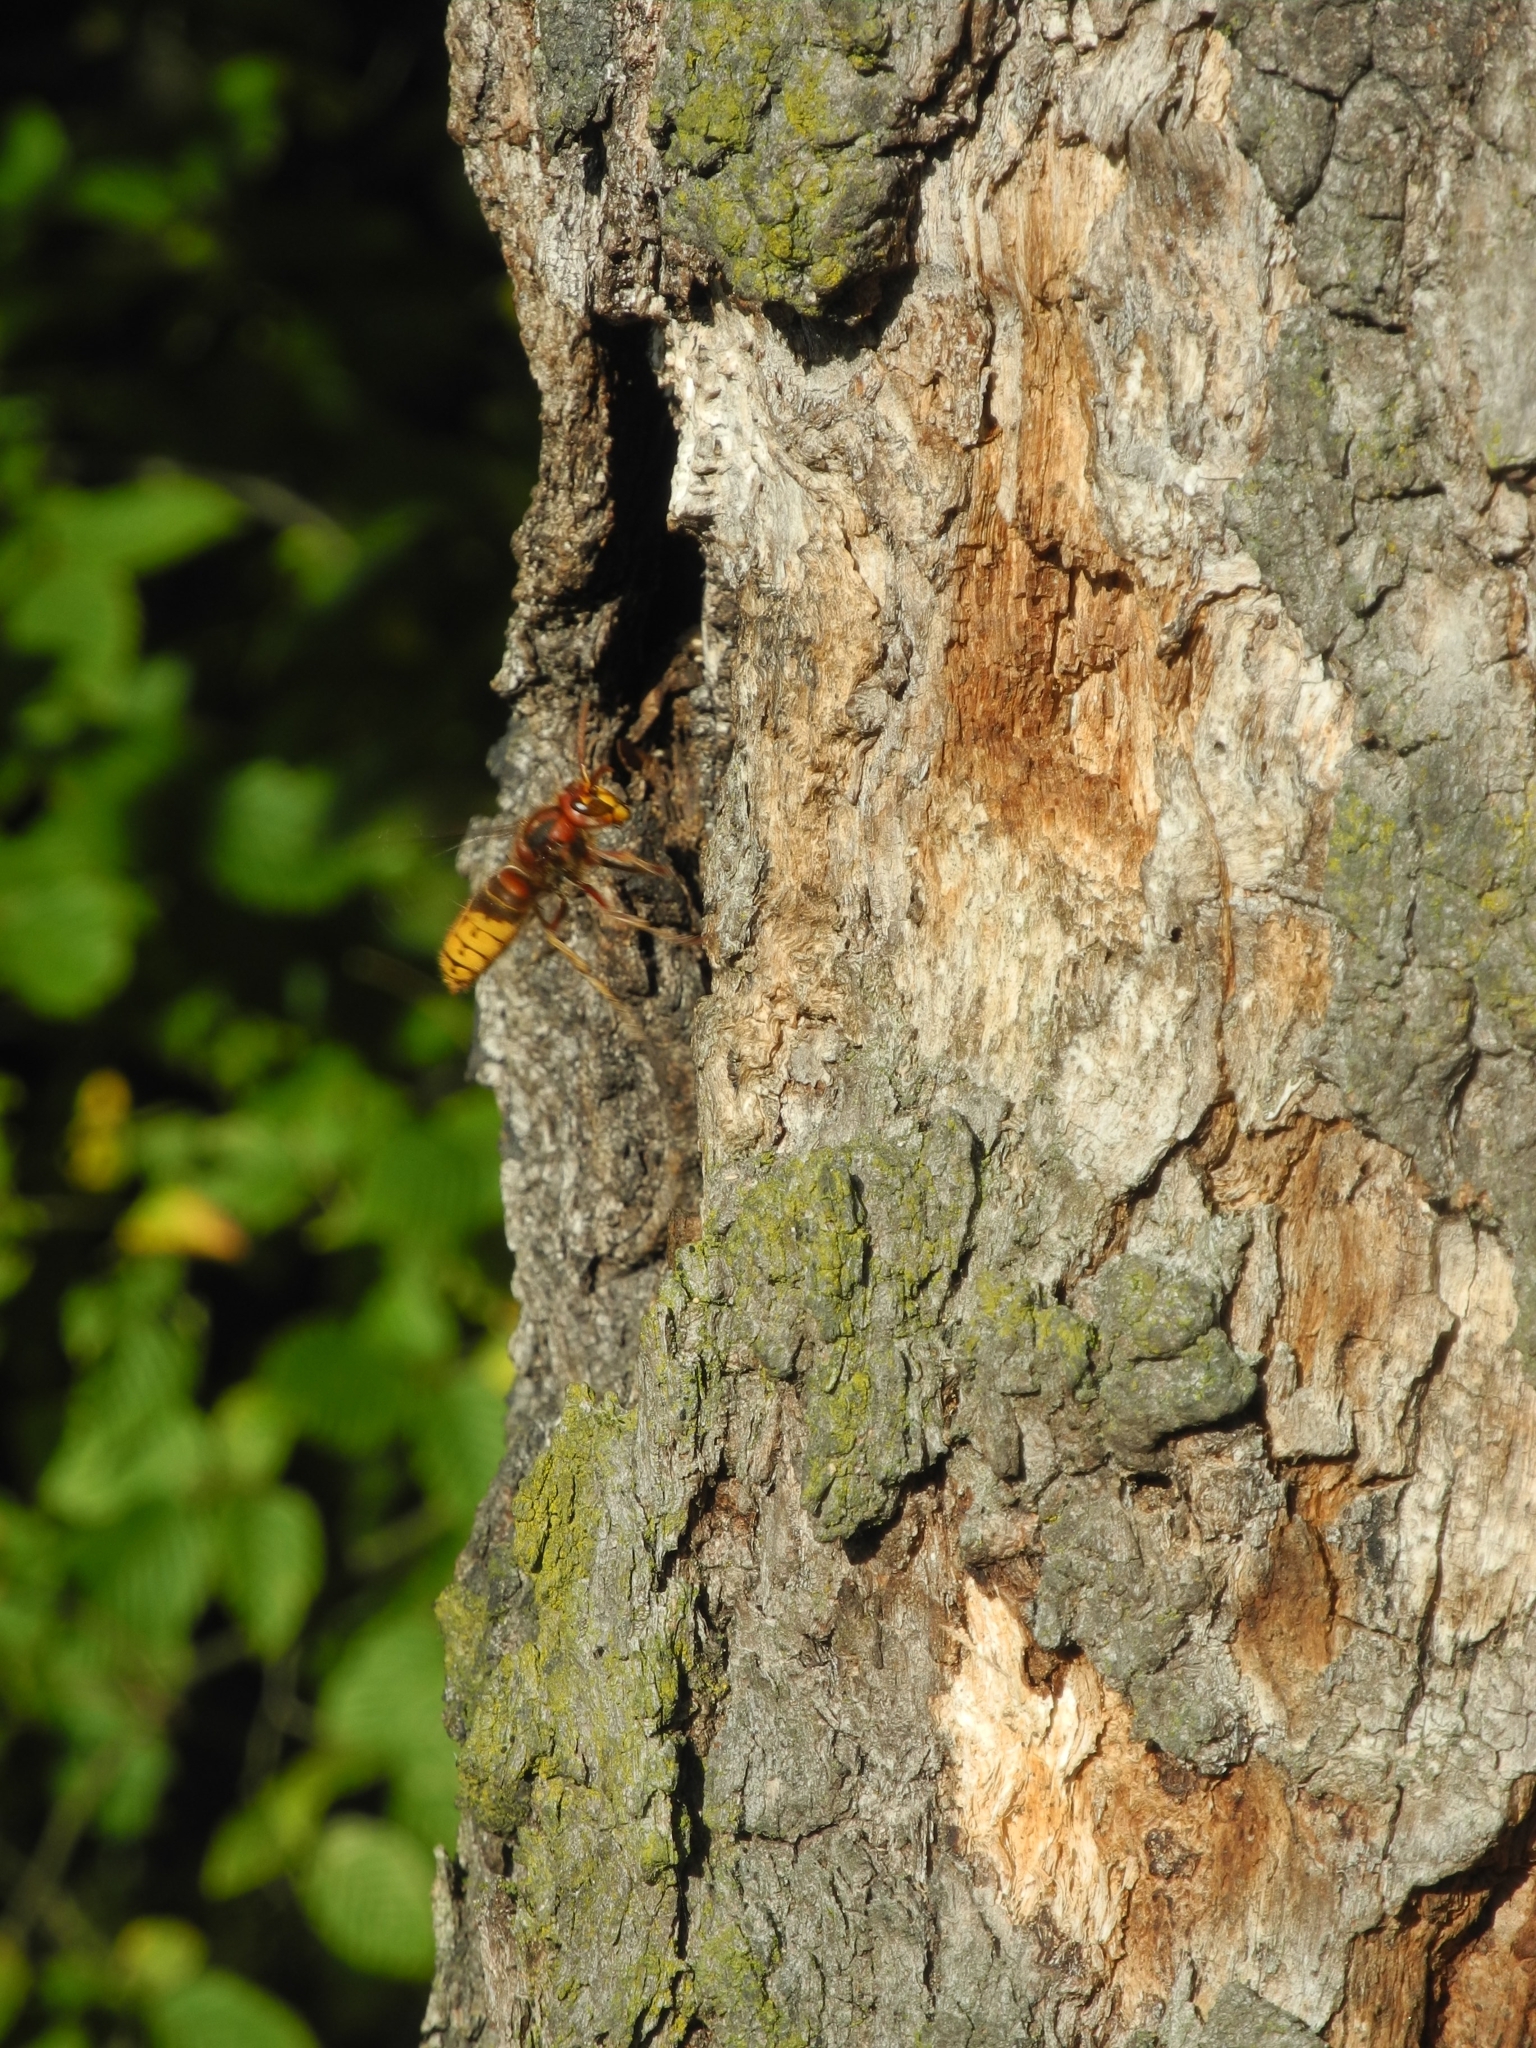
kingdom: Animalia
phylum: Arthropoda
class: Insecta
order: Hymenoptera
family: Vespidae
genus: Vespa
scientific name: Vespa crabro
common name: Hornet
